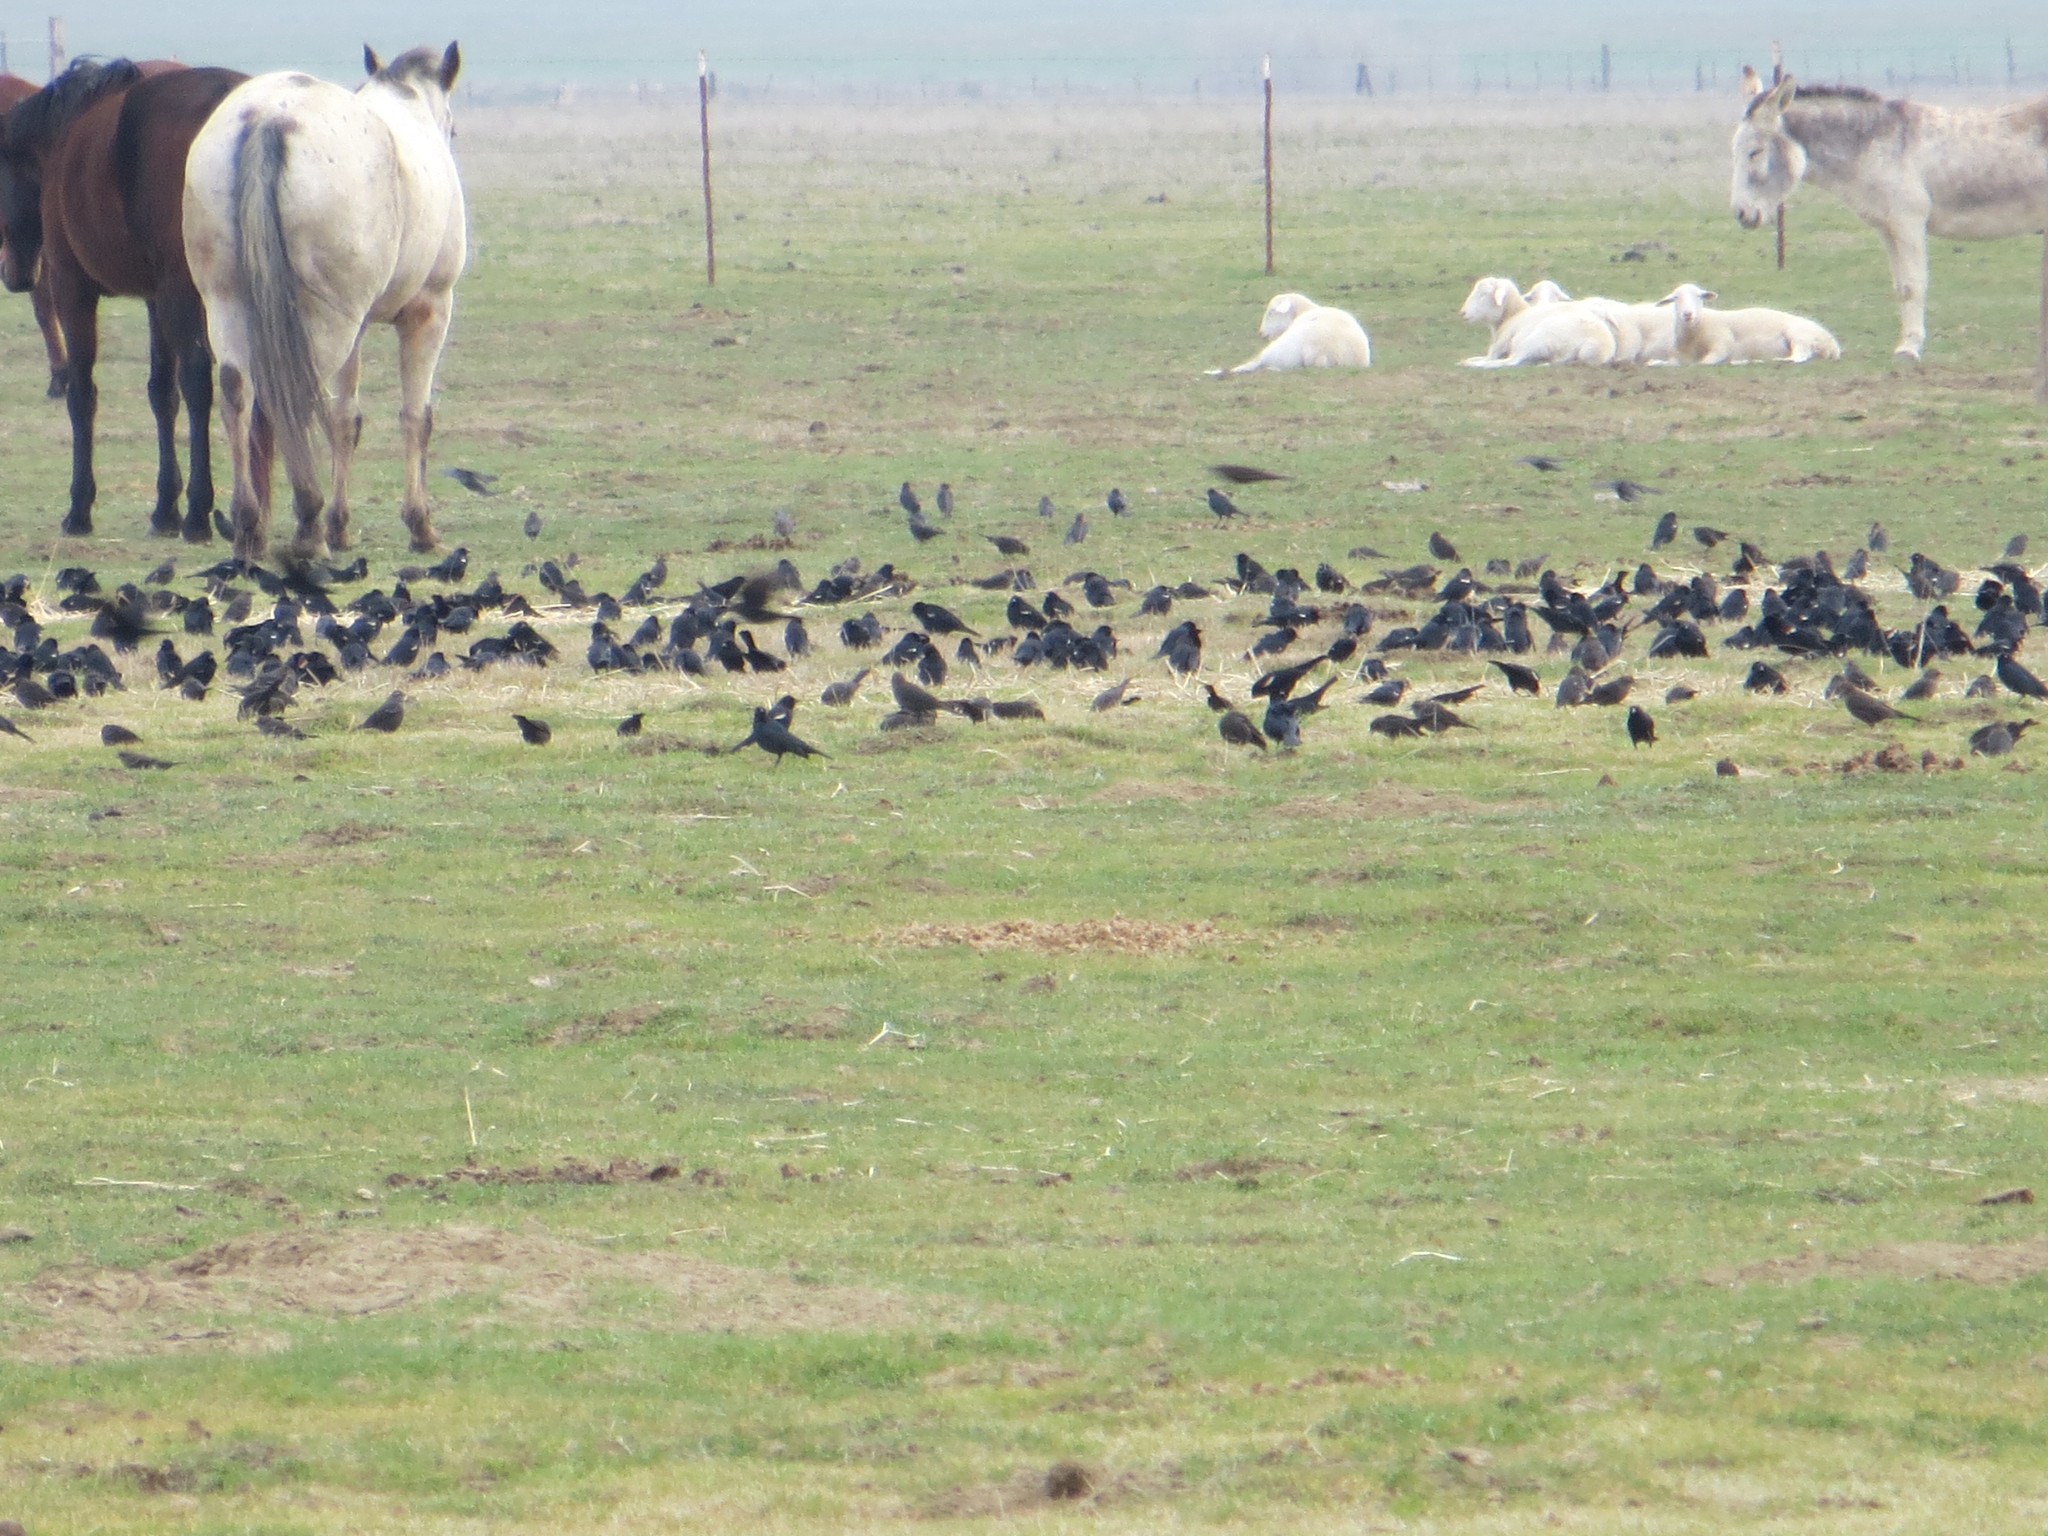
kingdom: Animalia
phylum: Chordata
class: Aves
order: Passeriformes
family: Icteridae
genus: Agelaius
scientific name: Agelaius tricolor
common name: Tricolored blackbird
